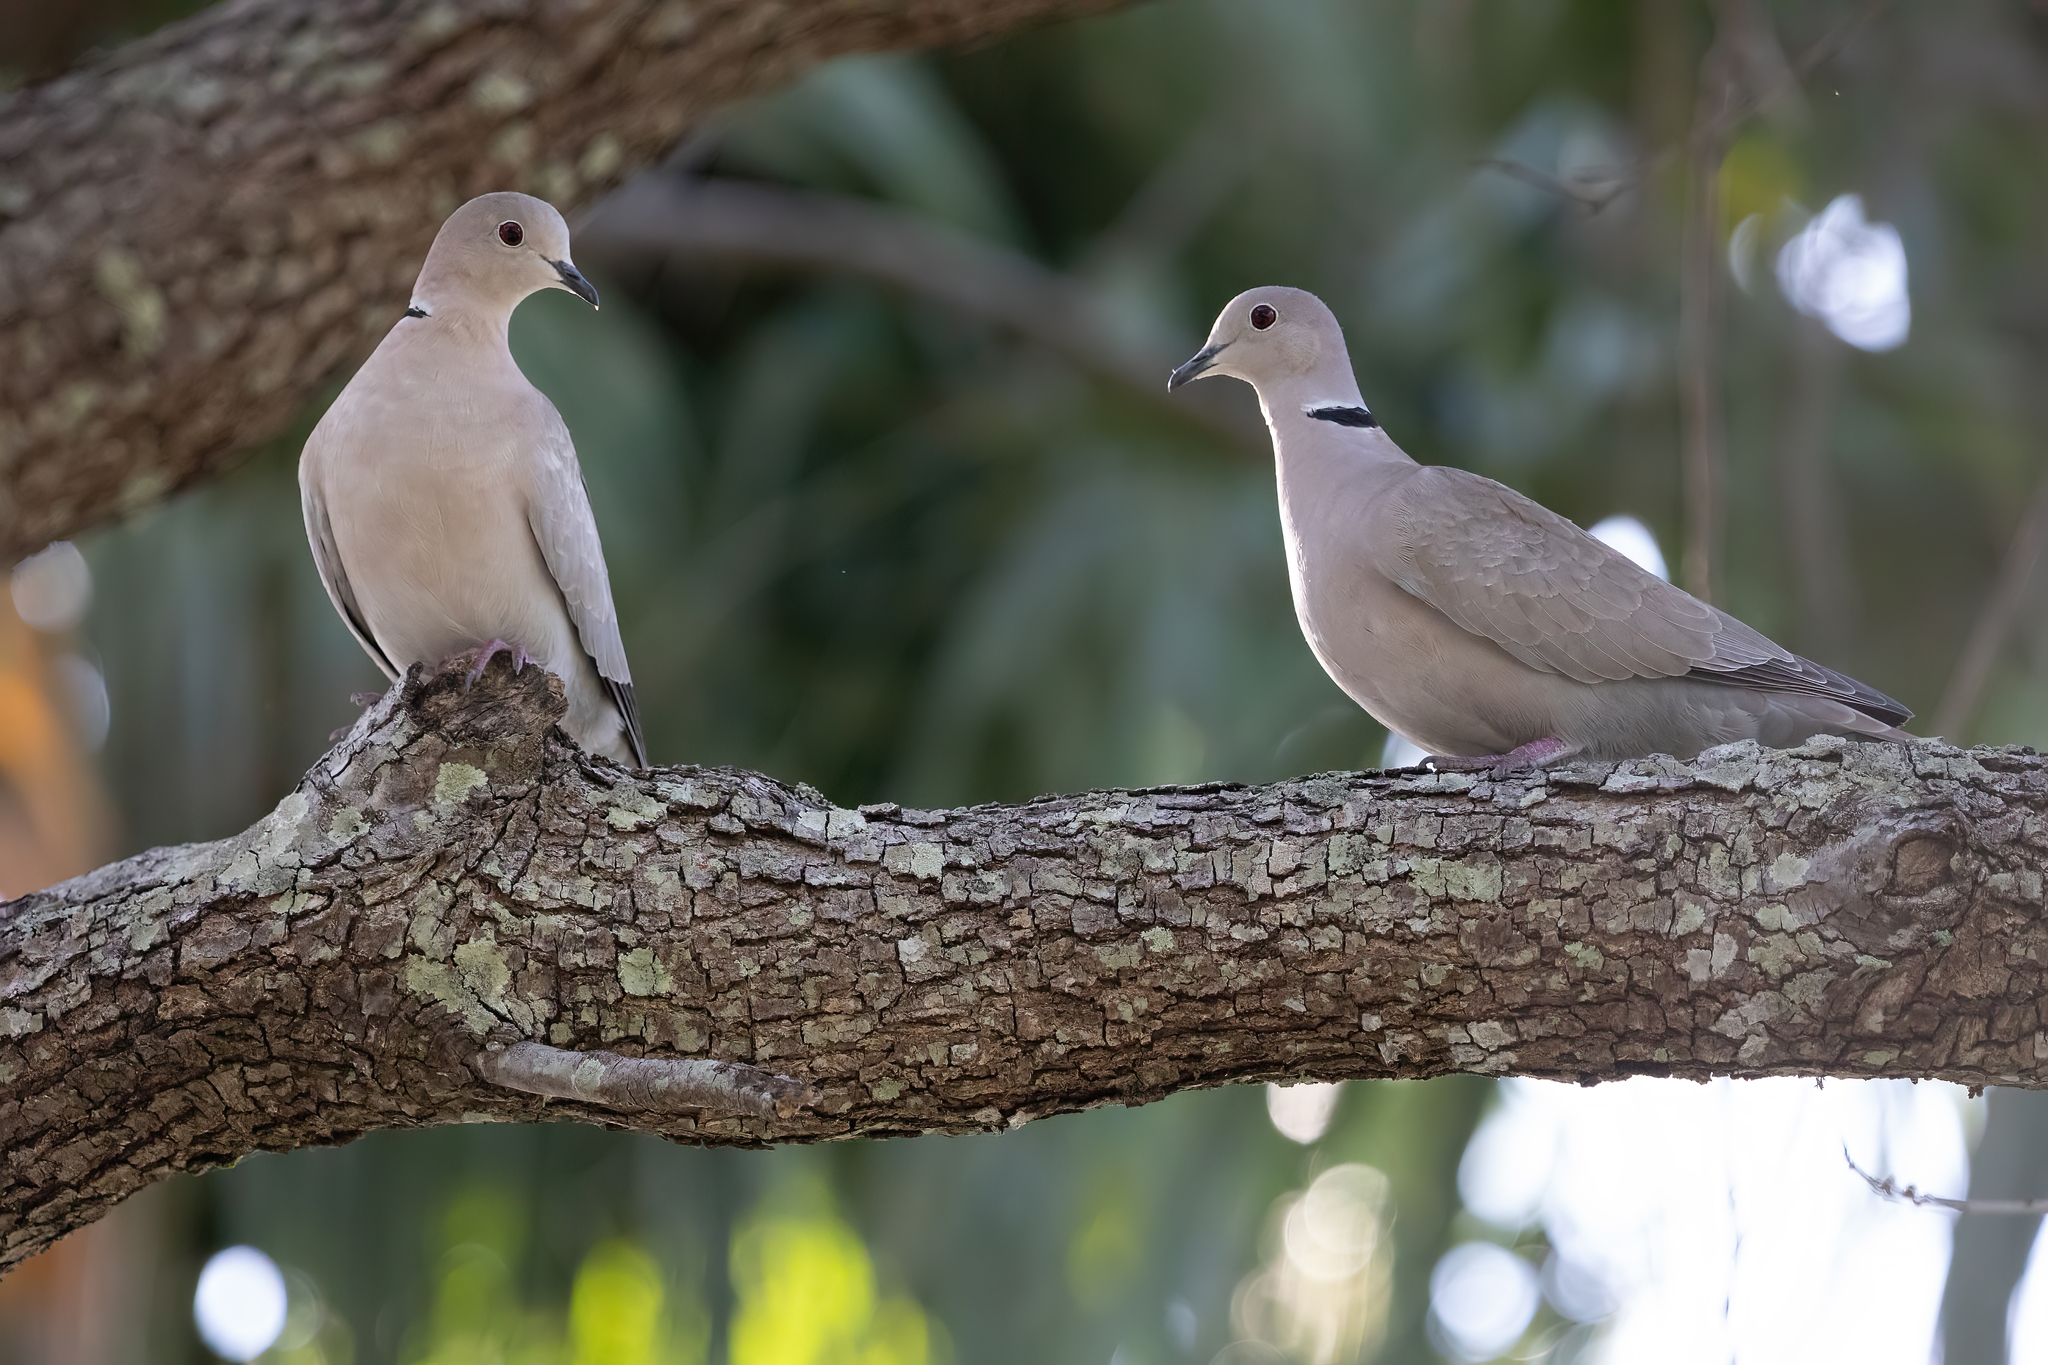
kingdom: Animalia
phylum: Chordata
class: Aves
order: Columbiformes
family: Columbidae
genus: Streptopelia
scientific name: Streptopelia decaocto
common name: Eurasian collared dove
